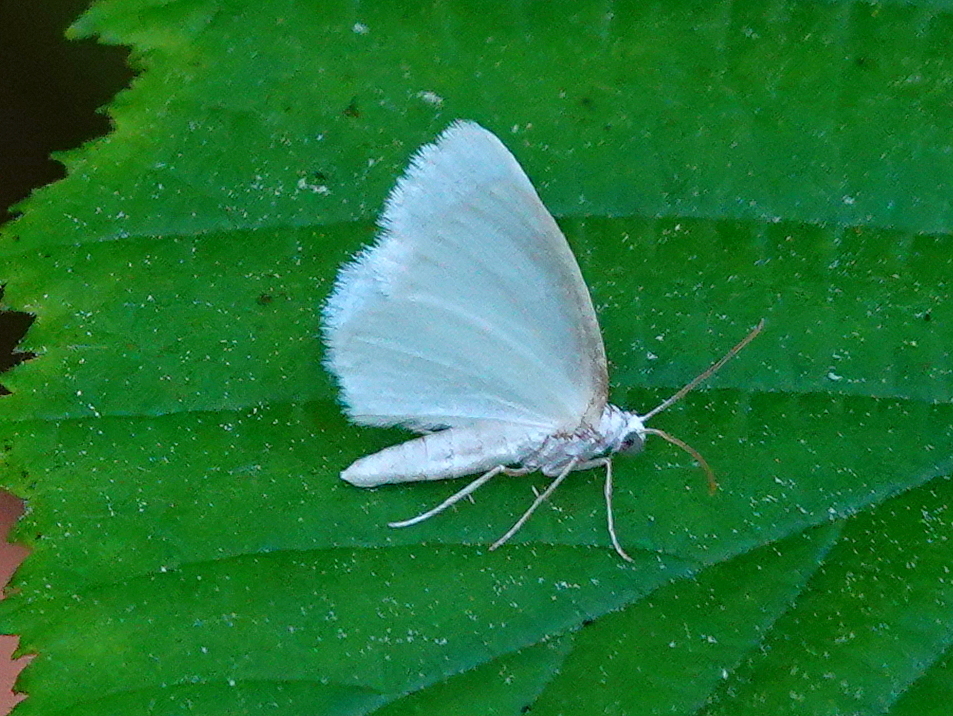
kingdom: Animalia
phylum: Arthropoda
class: Insecta
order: Lepidoptera
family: Geometridae
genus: Lomographa
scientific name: Lomographa vestaliata
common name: White spring moth
